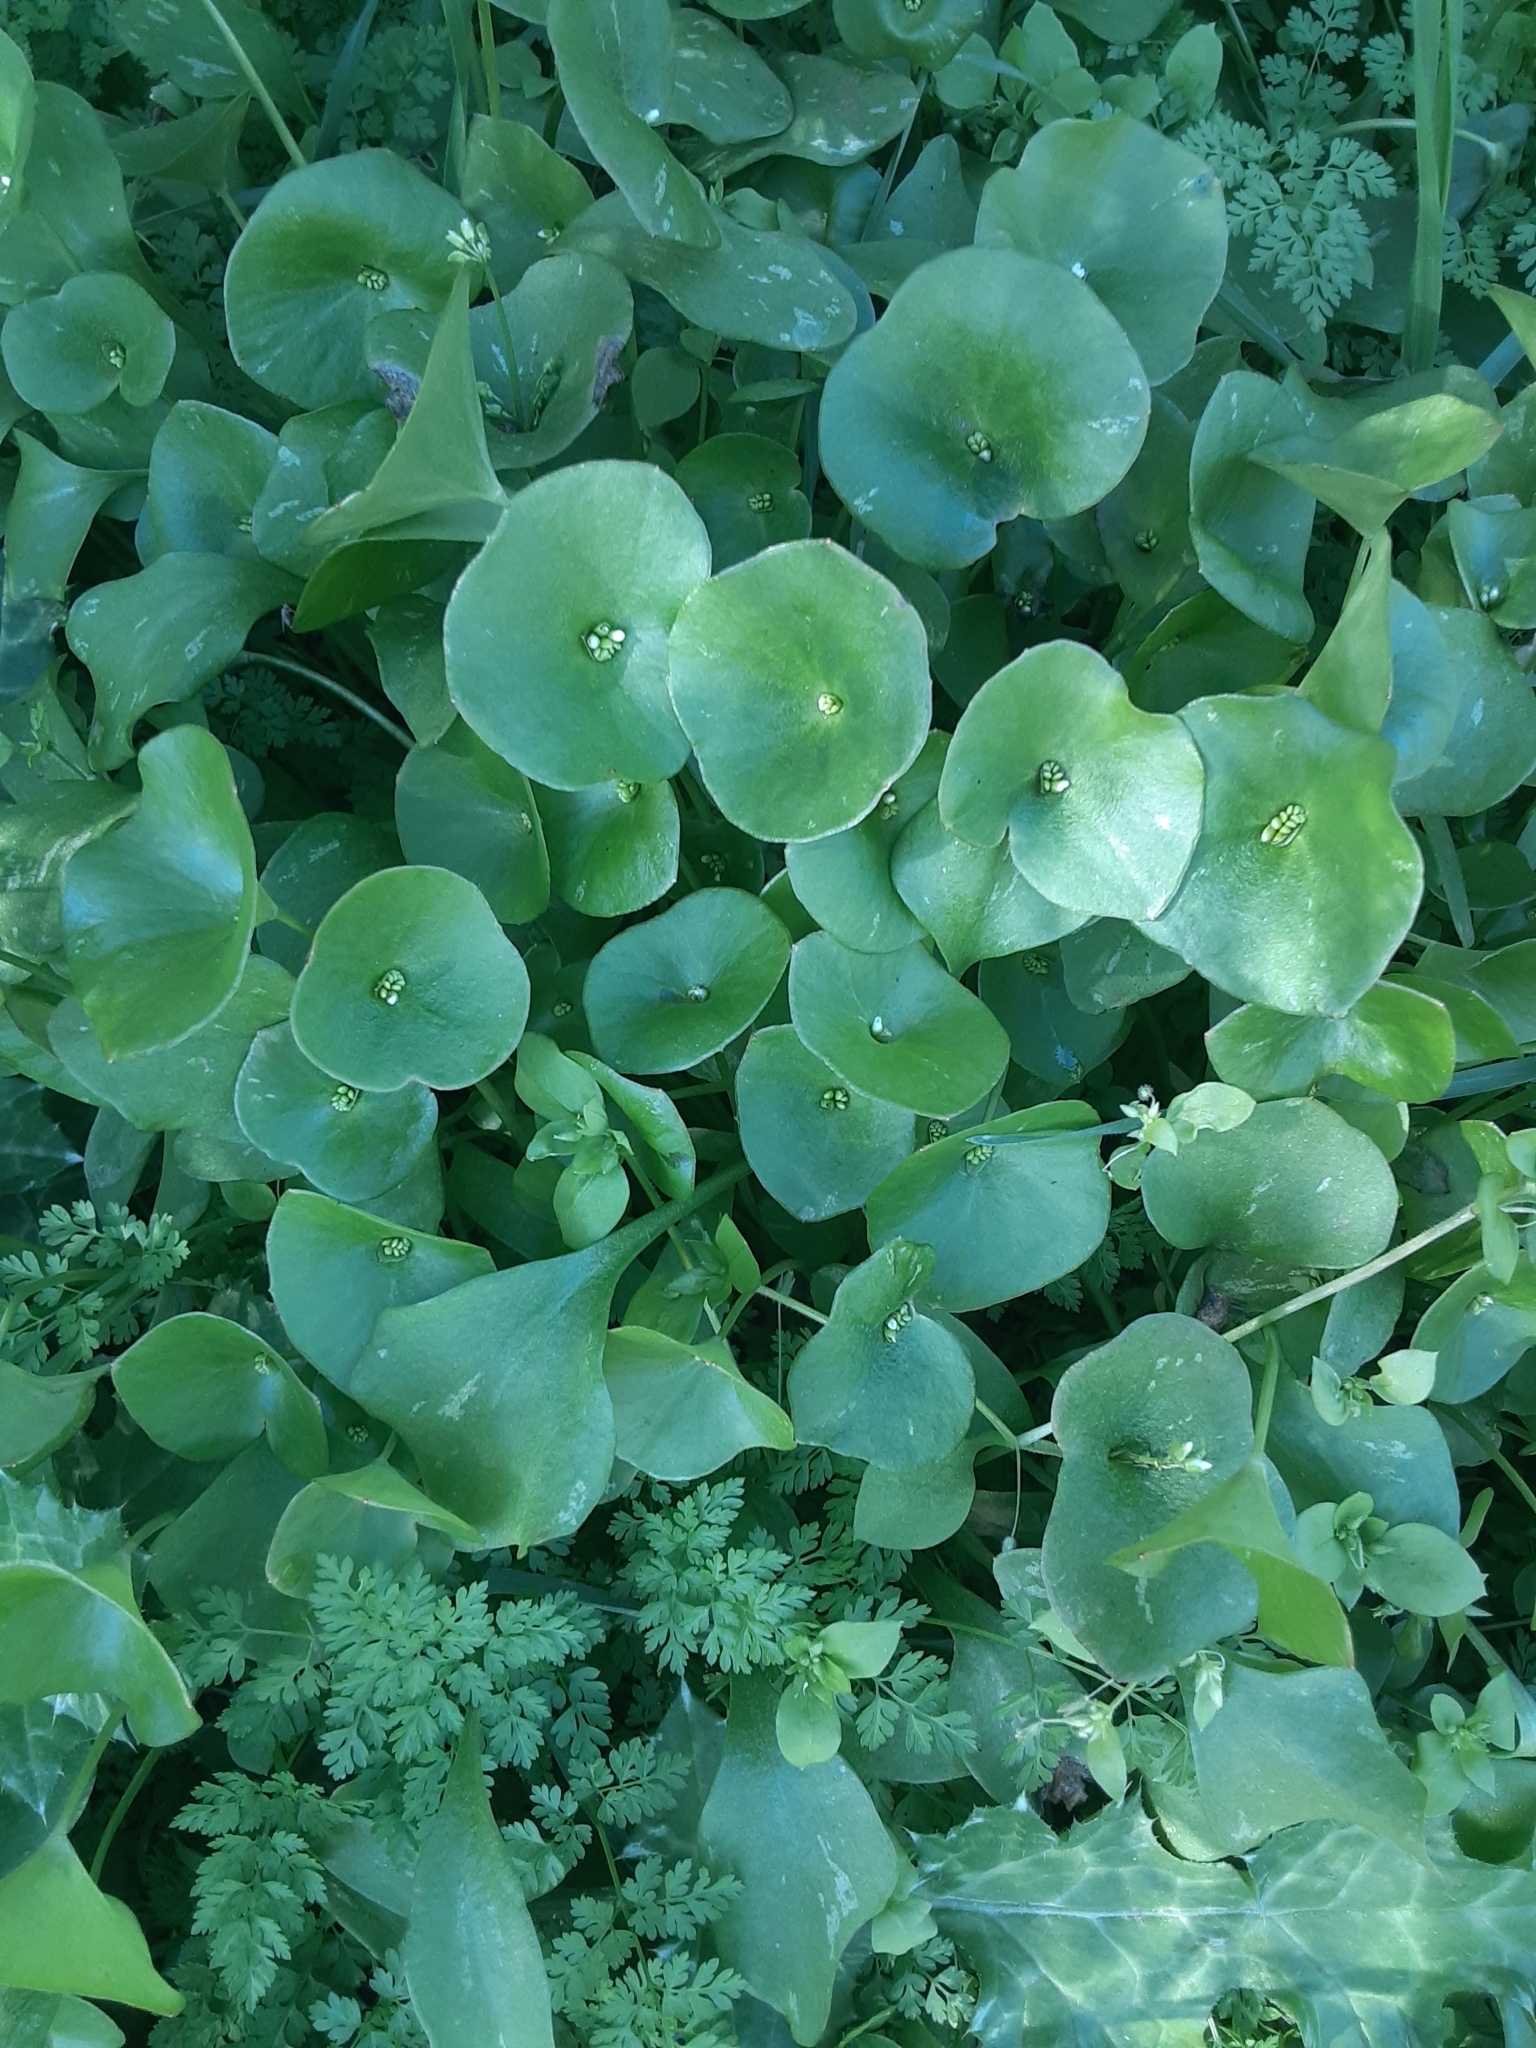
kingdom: Plantae
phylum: Tracheophyta
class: Magnoliopsida
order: Caryophyllales
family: Montiaceae
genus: Claytonia
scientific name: Claytonia perfoliata
